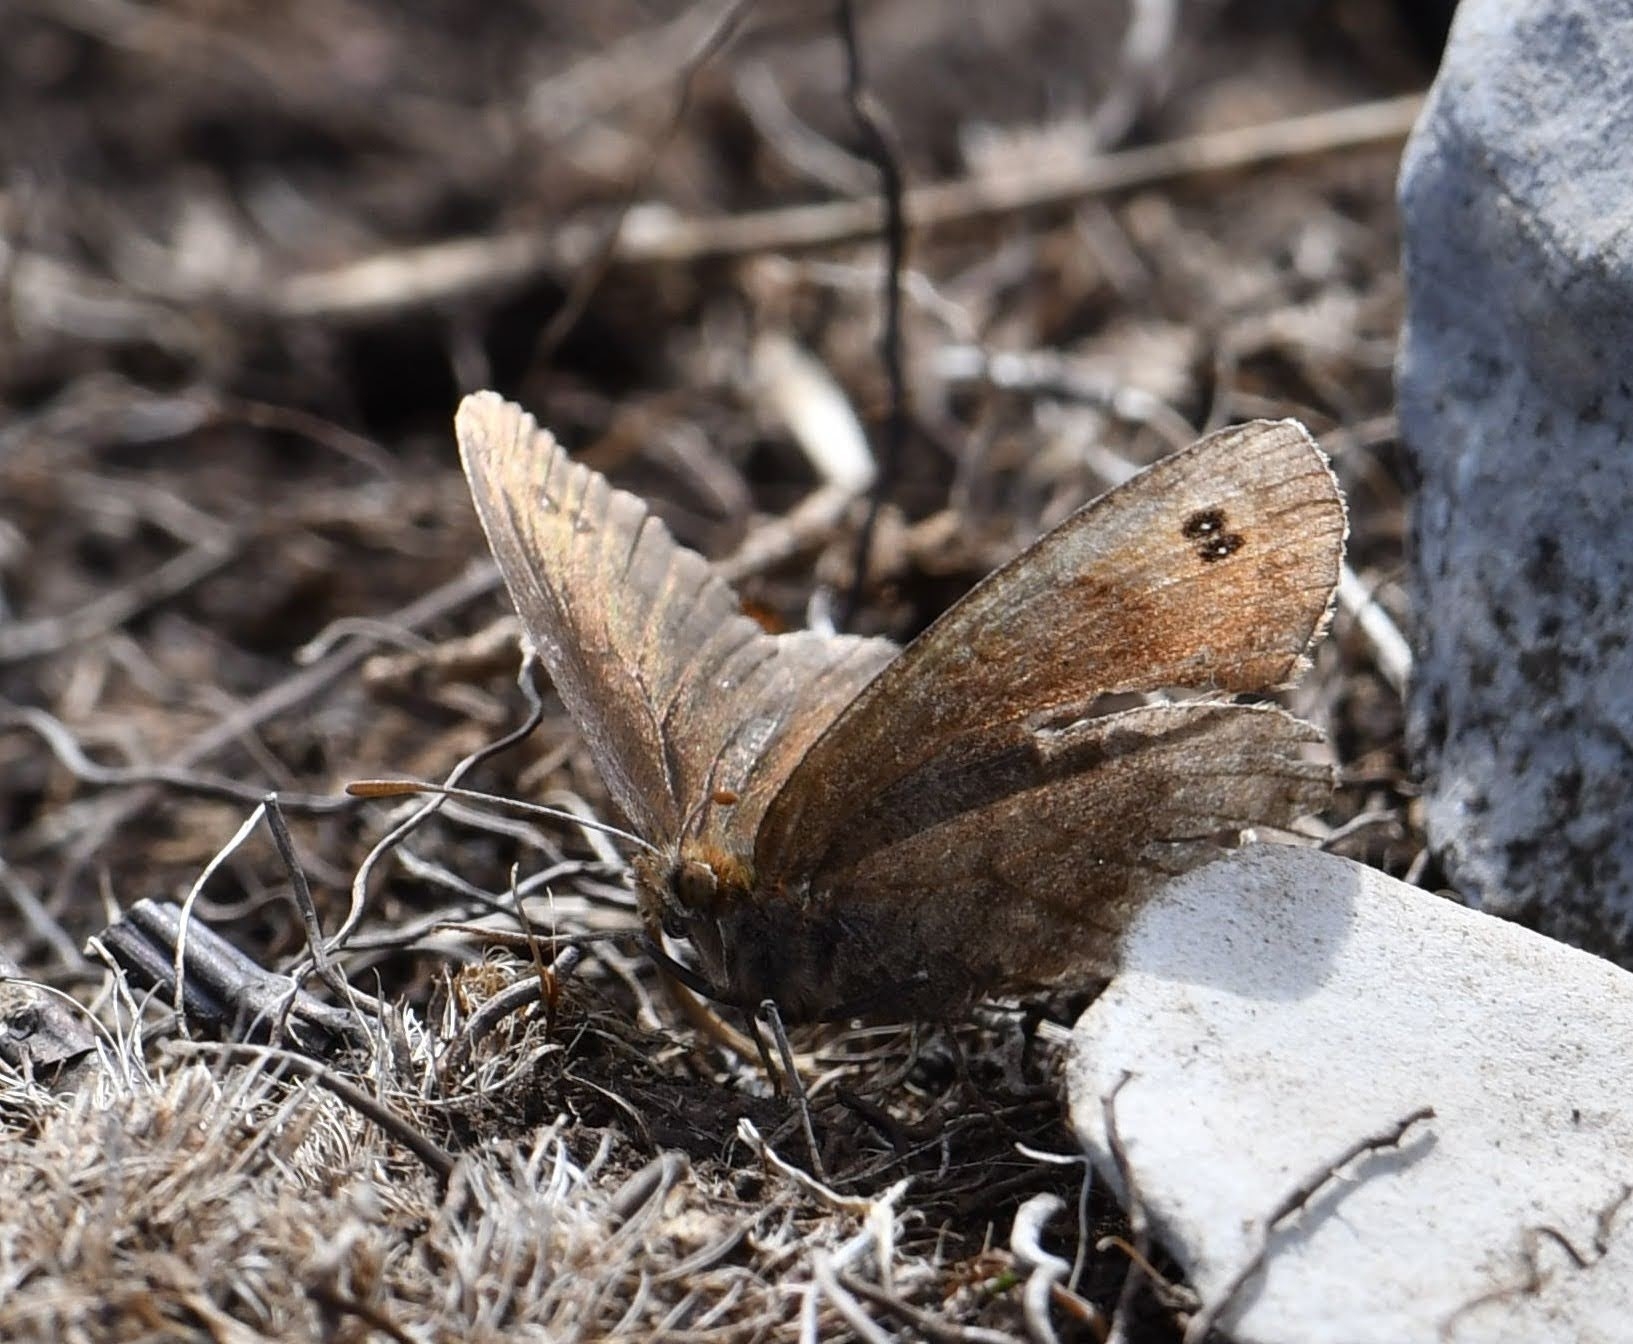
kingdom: Animalia
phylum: Arthropoda
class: Insecta
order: Lepidoptera
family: Nymphalidae
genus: Erebia
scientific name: Erebia pronoe
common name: Water ringlet
